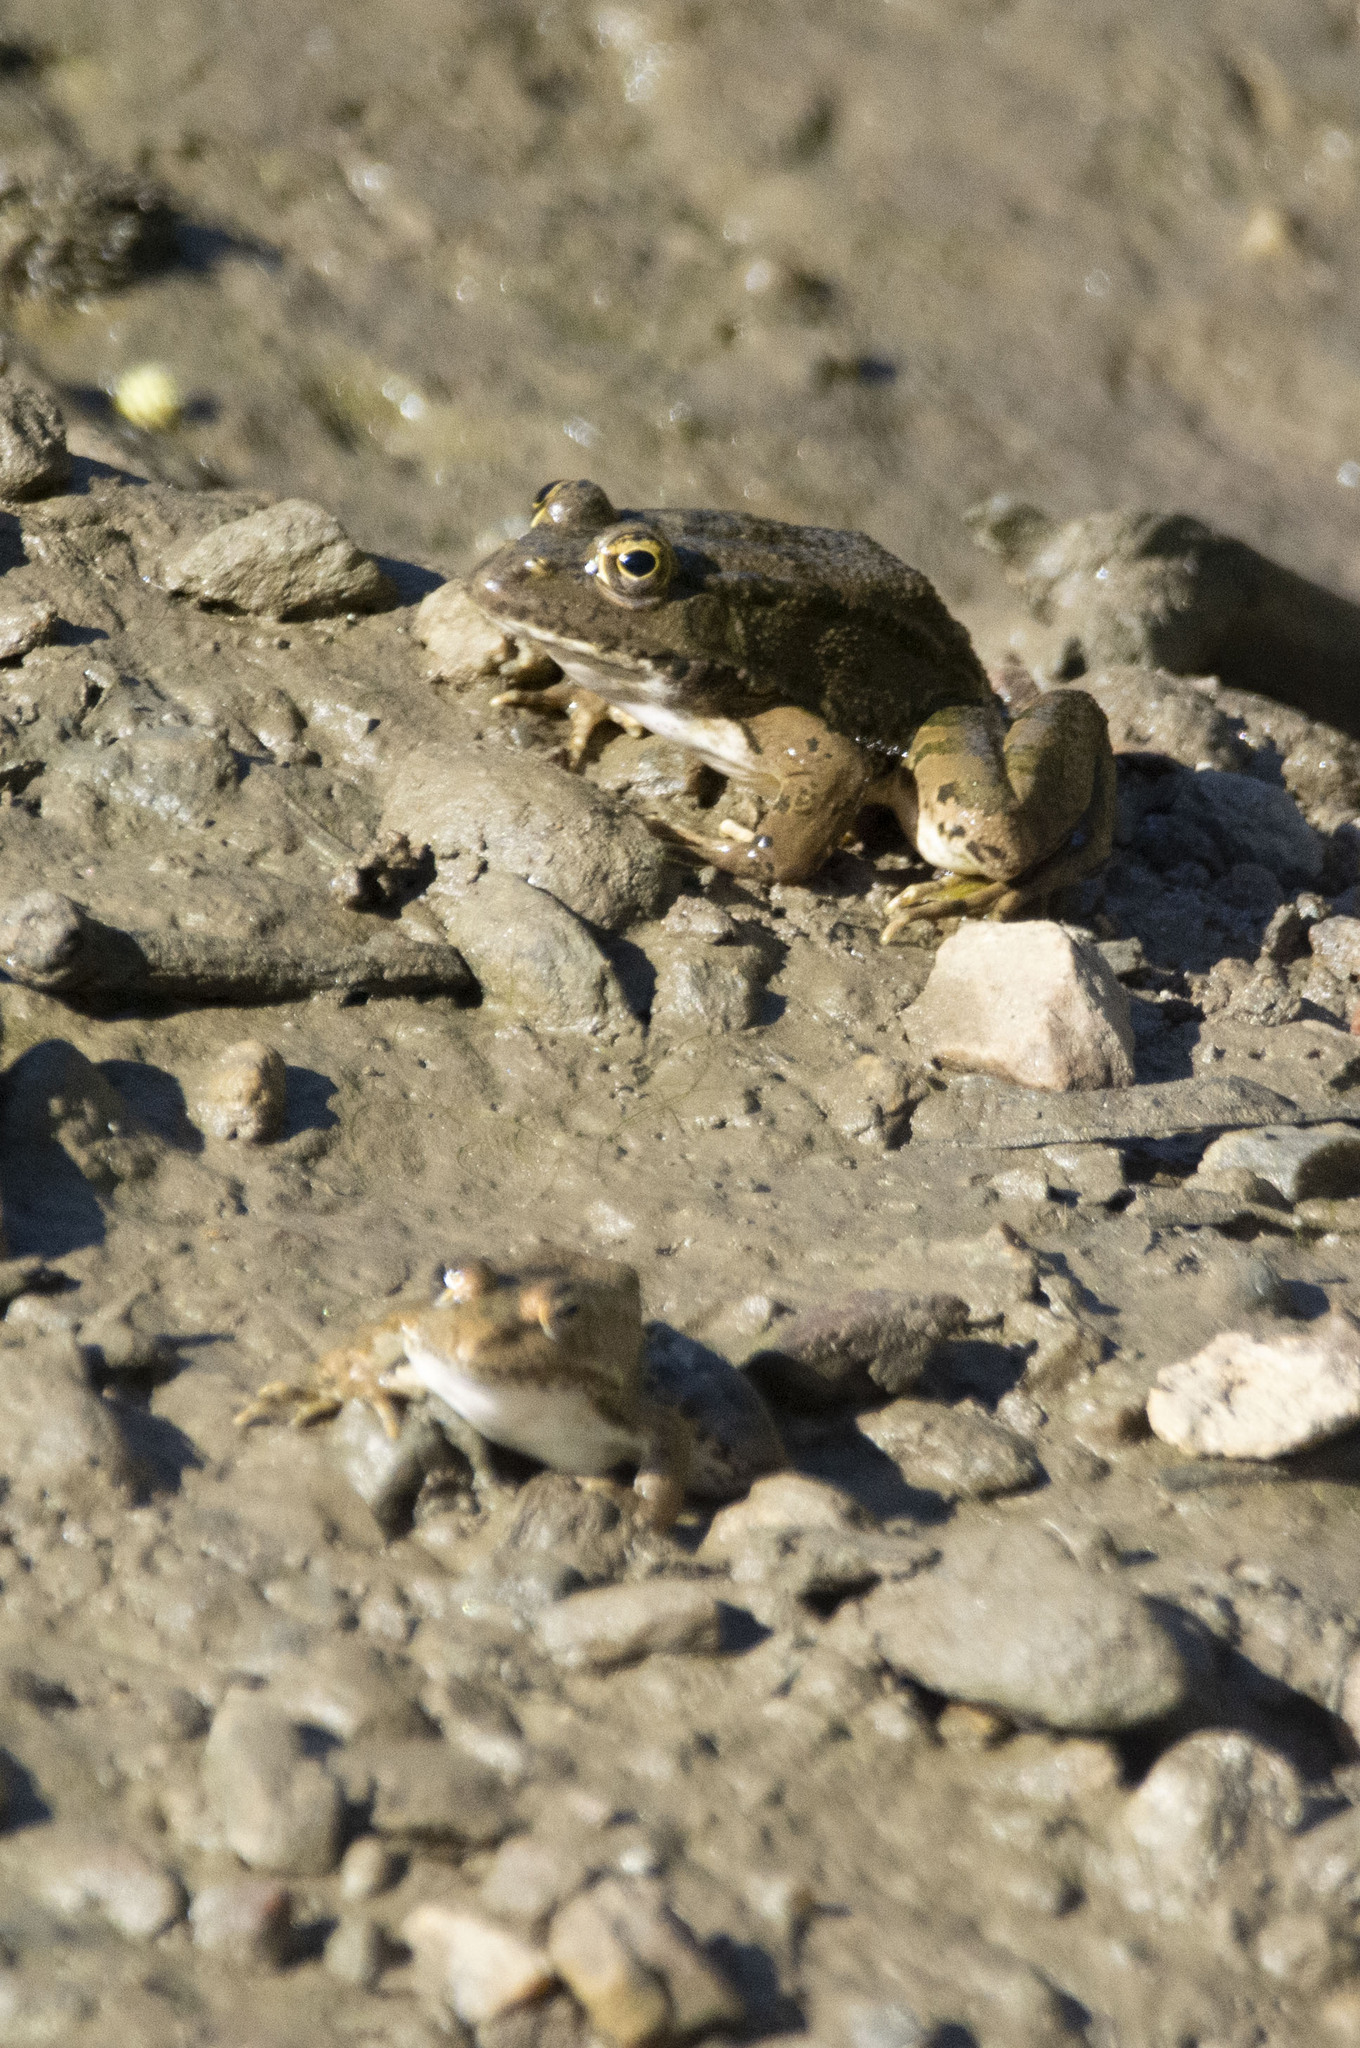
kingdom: Animalia
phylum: Chordata
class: Amphibia
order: Anura
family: Ranidae
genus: Pelophylax
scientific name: Pelophylax ridibundus
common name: Marsh frog
